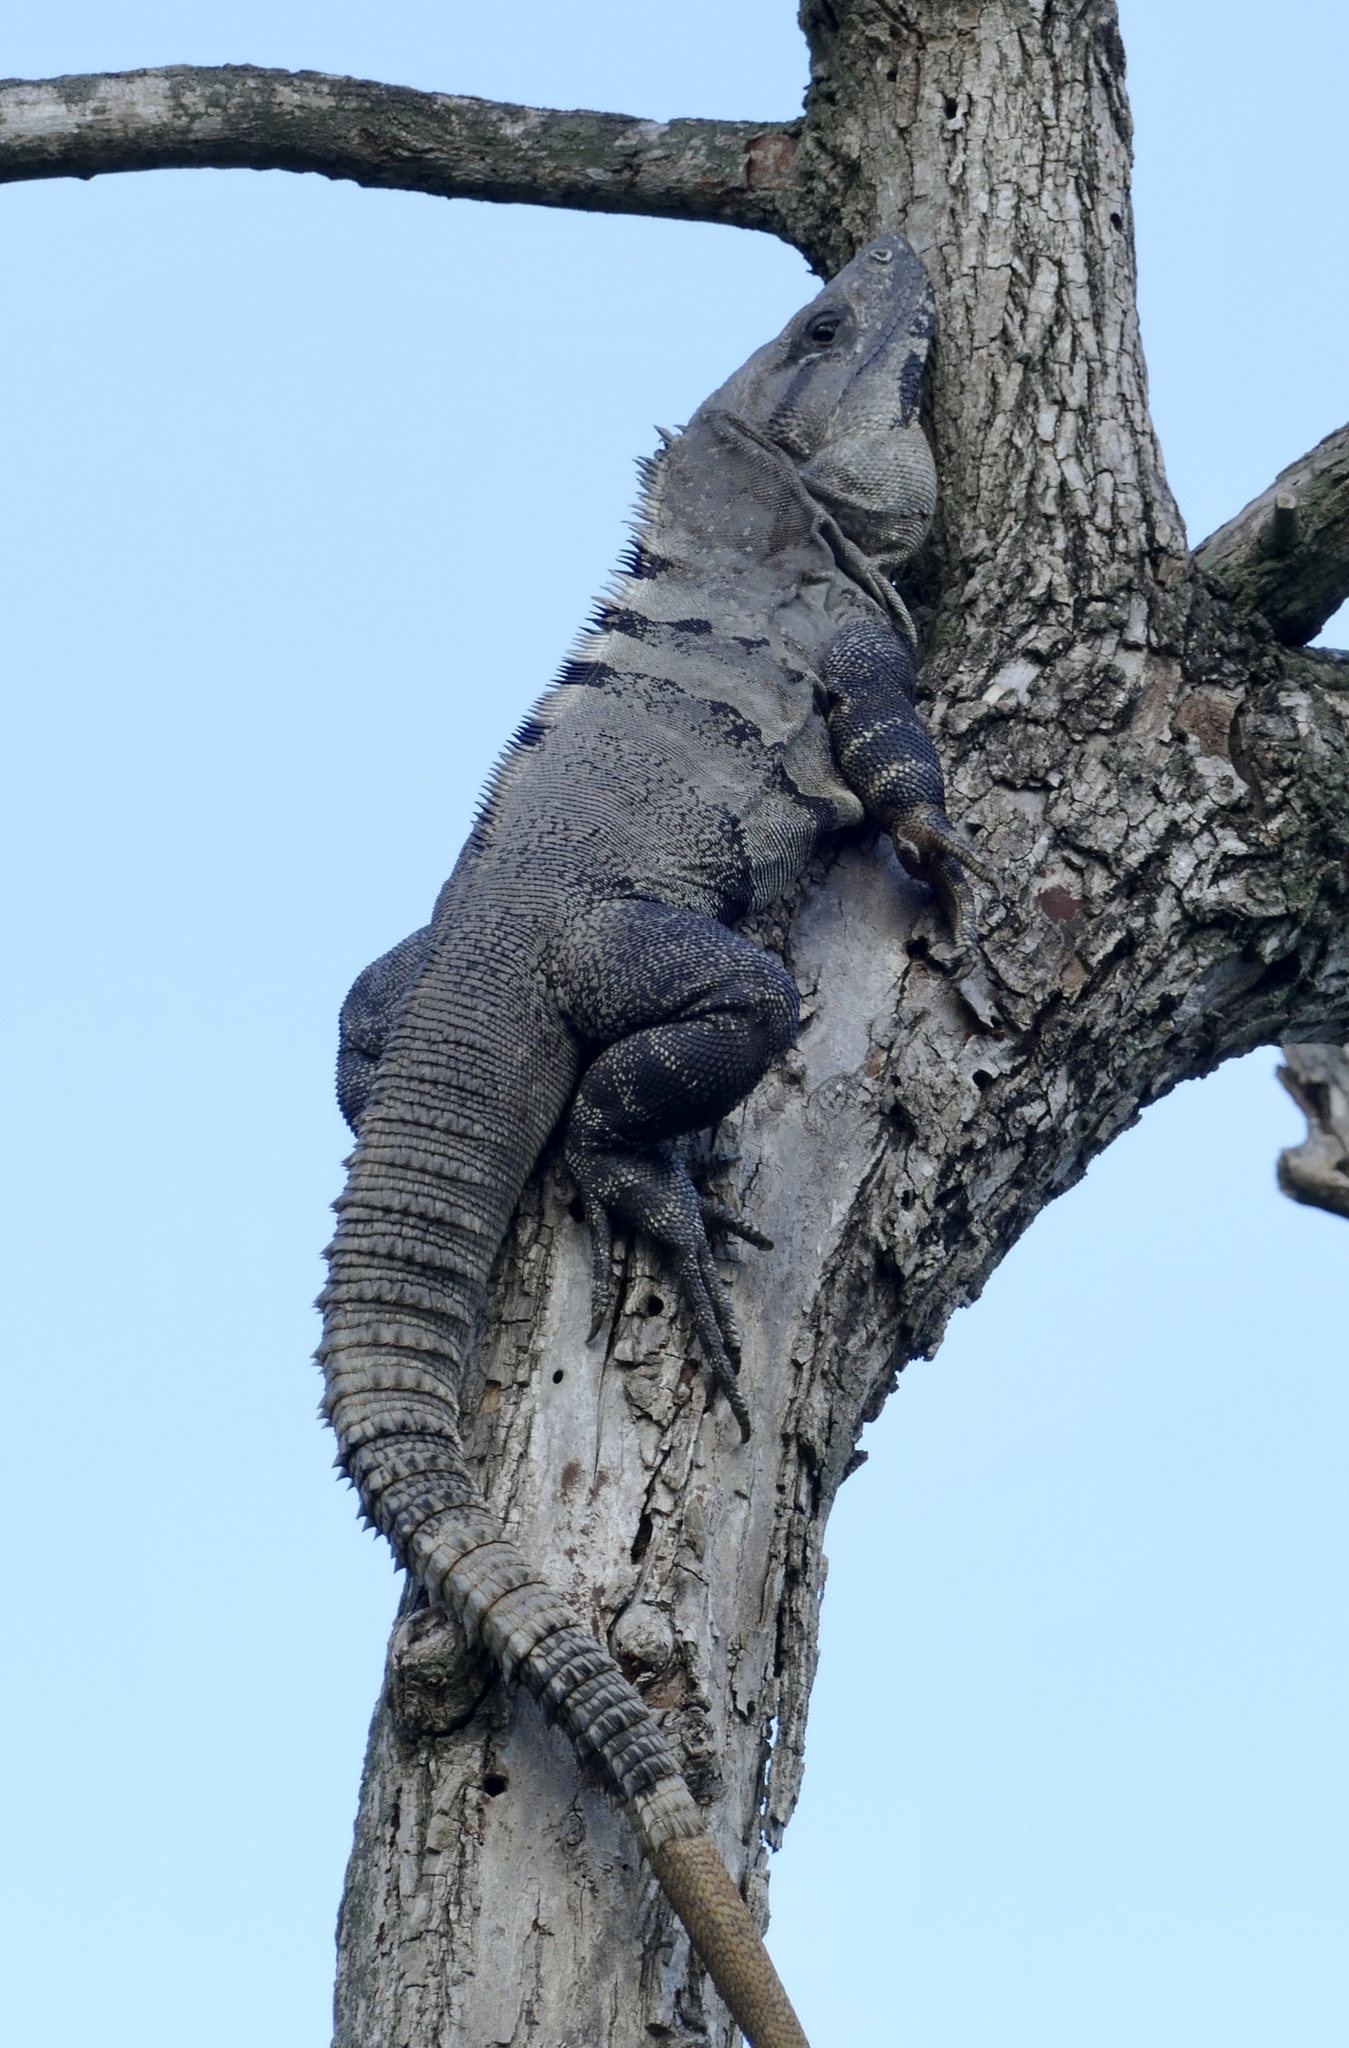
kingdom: Animalia
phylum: Chordata
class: Squamata
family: Iguanidae
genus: Ctenosaura
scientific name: Ctenosaura similis
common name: Black spiny-tailed iguana
